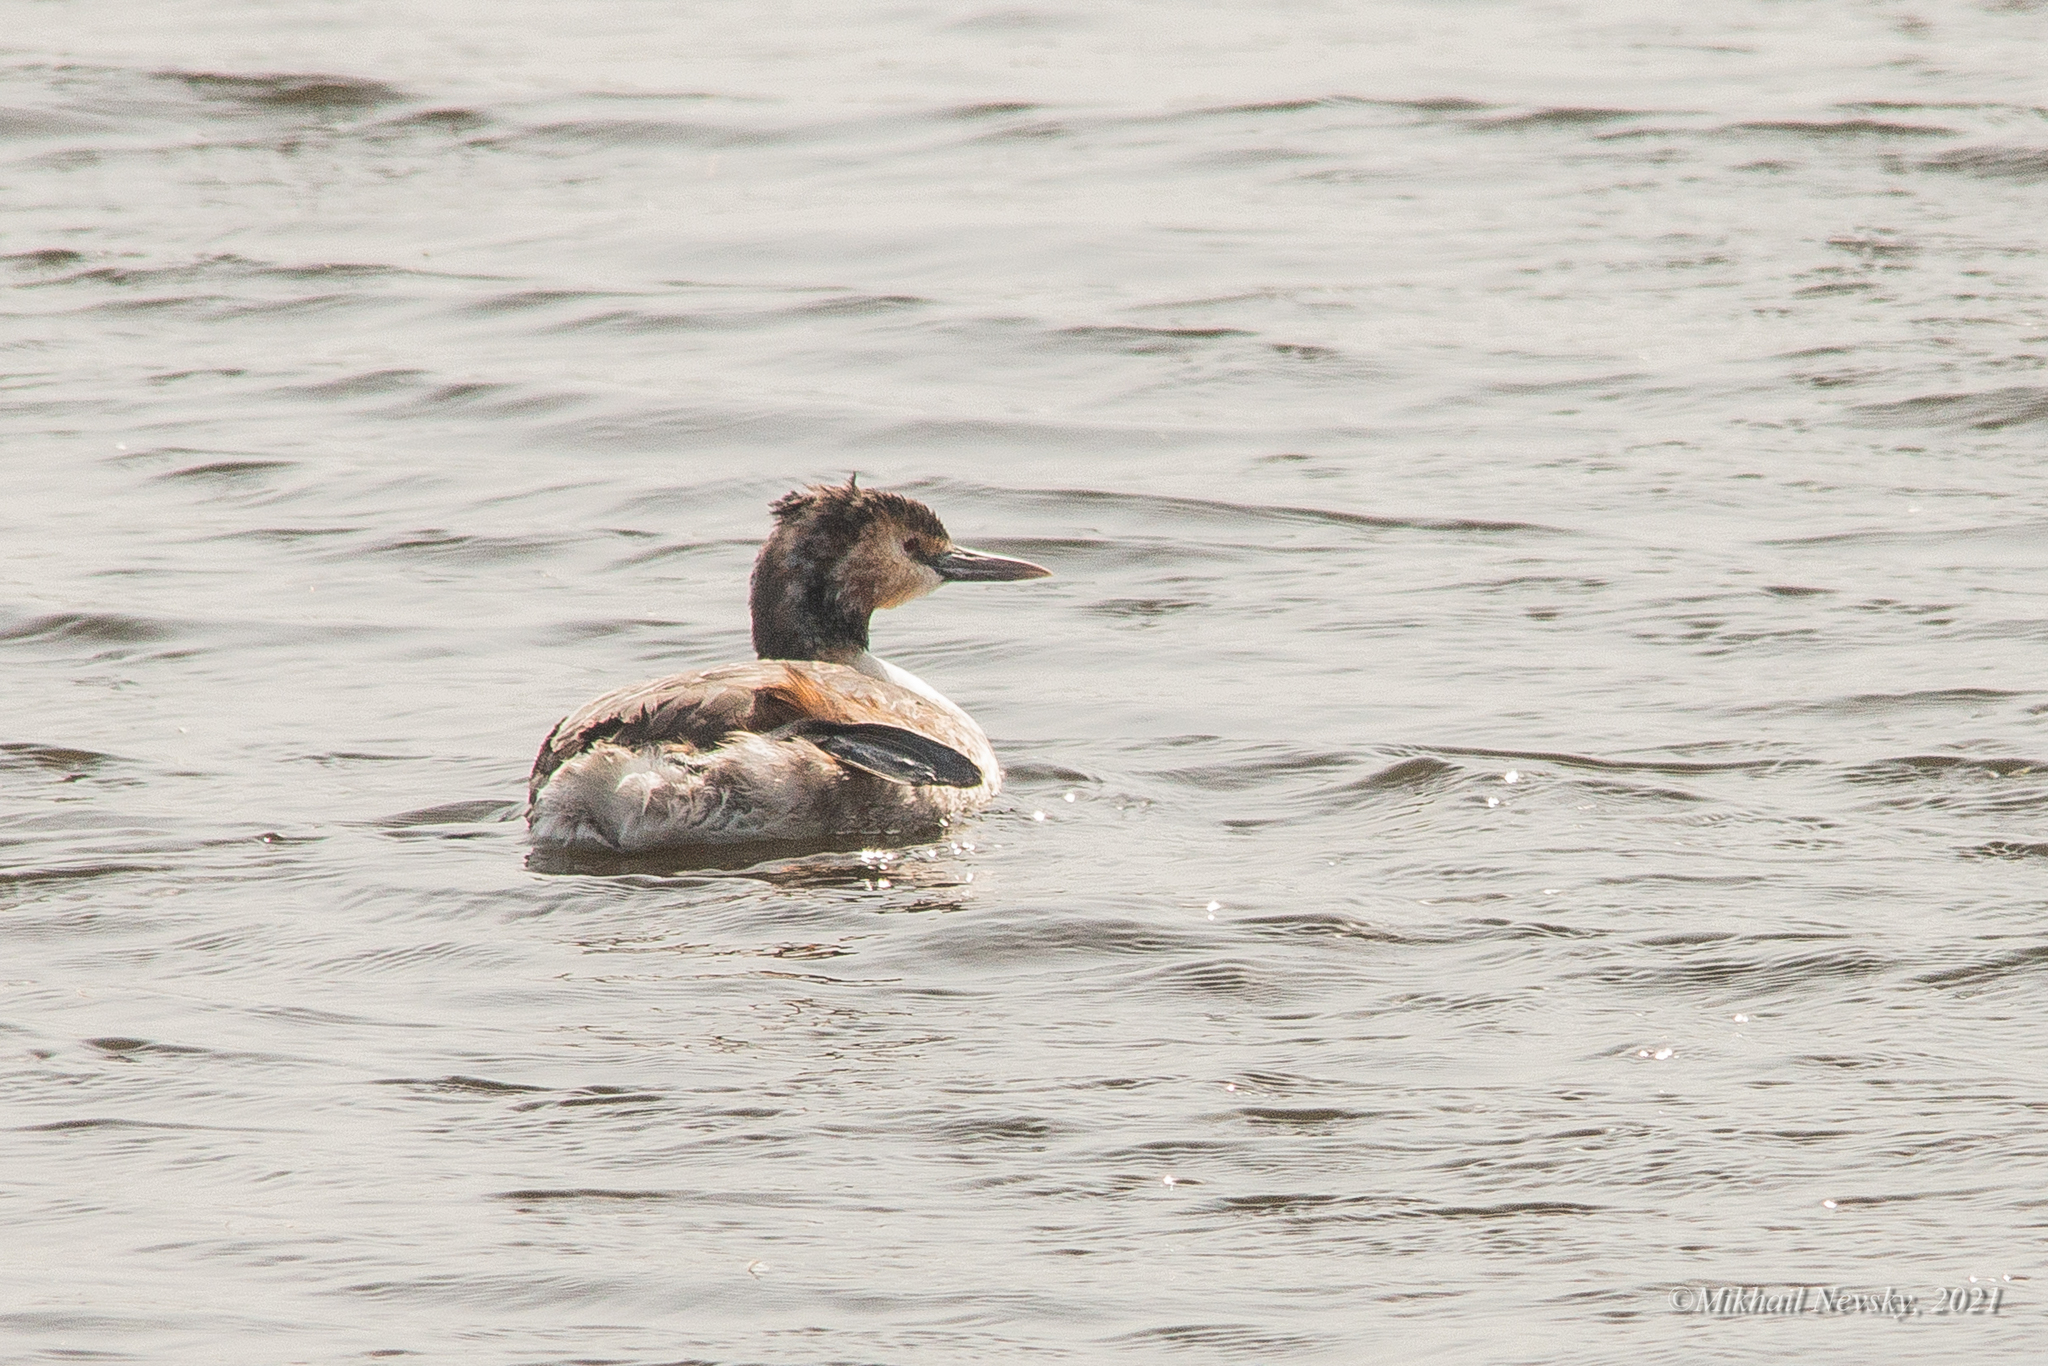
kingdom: Animalia
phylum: Chordata
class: Aves
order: Podicipediformes
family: Podicipedidae
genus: Podiceps
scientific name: Podiceps cristatus
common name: Great crested grebe
